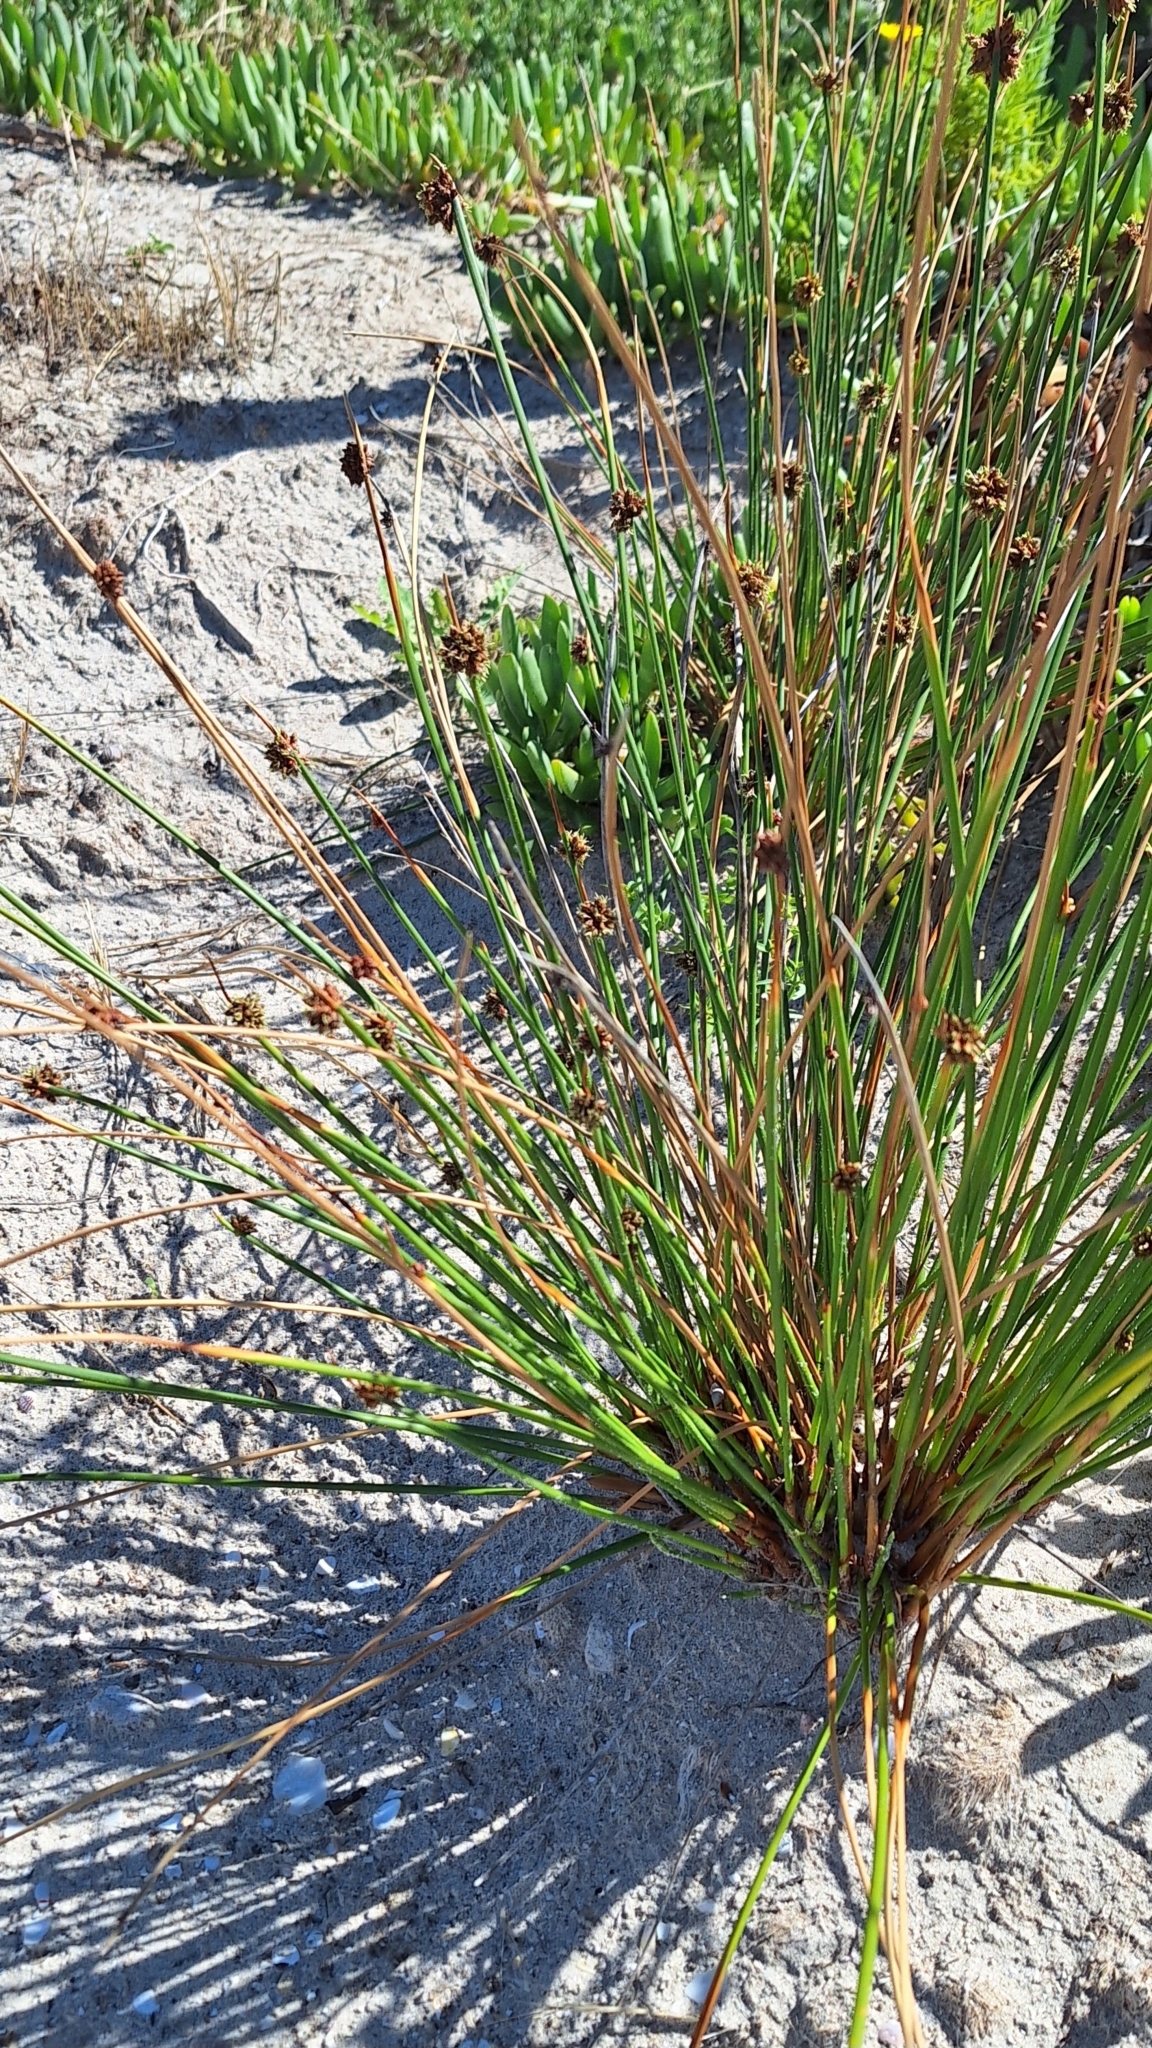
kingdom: Plantae
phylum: Tracheophyta
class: Liliopsida
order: Poales
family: Cyperaceae
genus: Ficinia
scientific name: Ficinia nodosa
